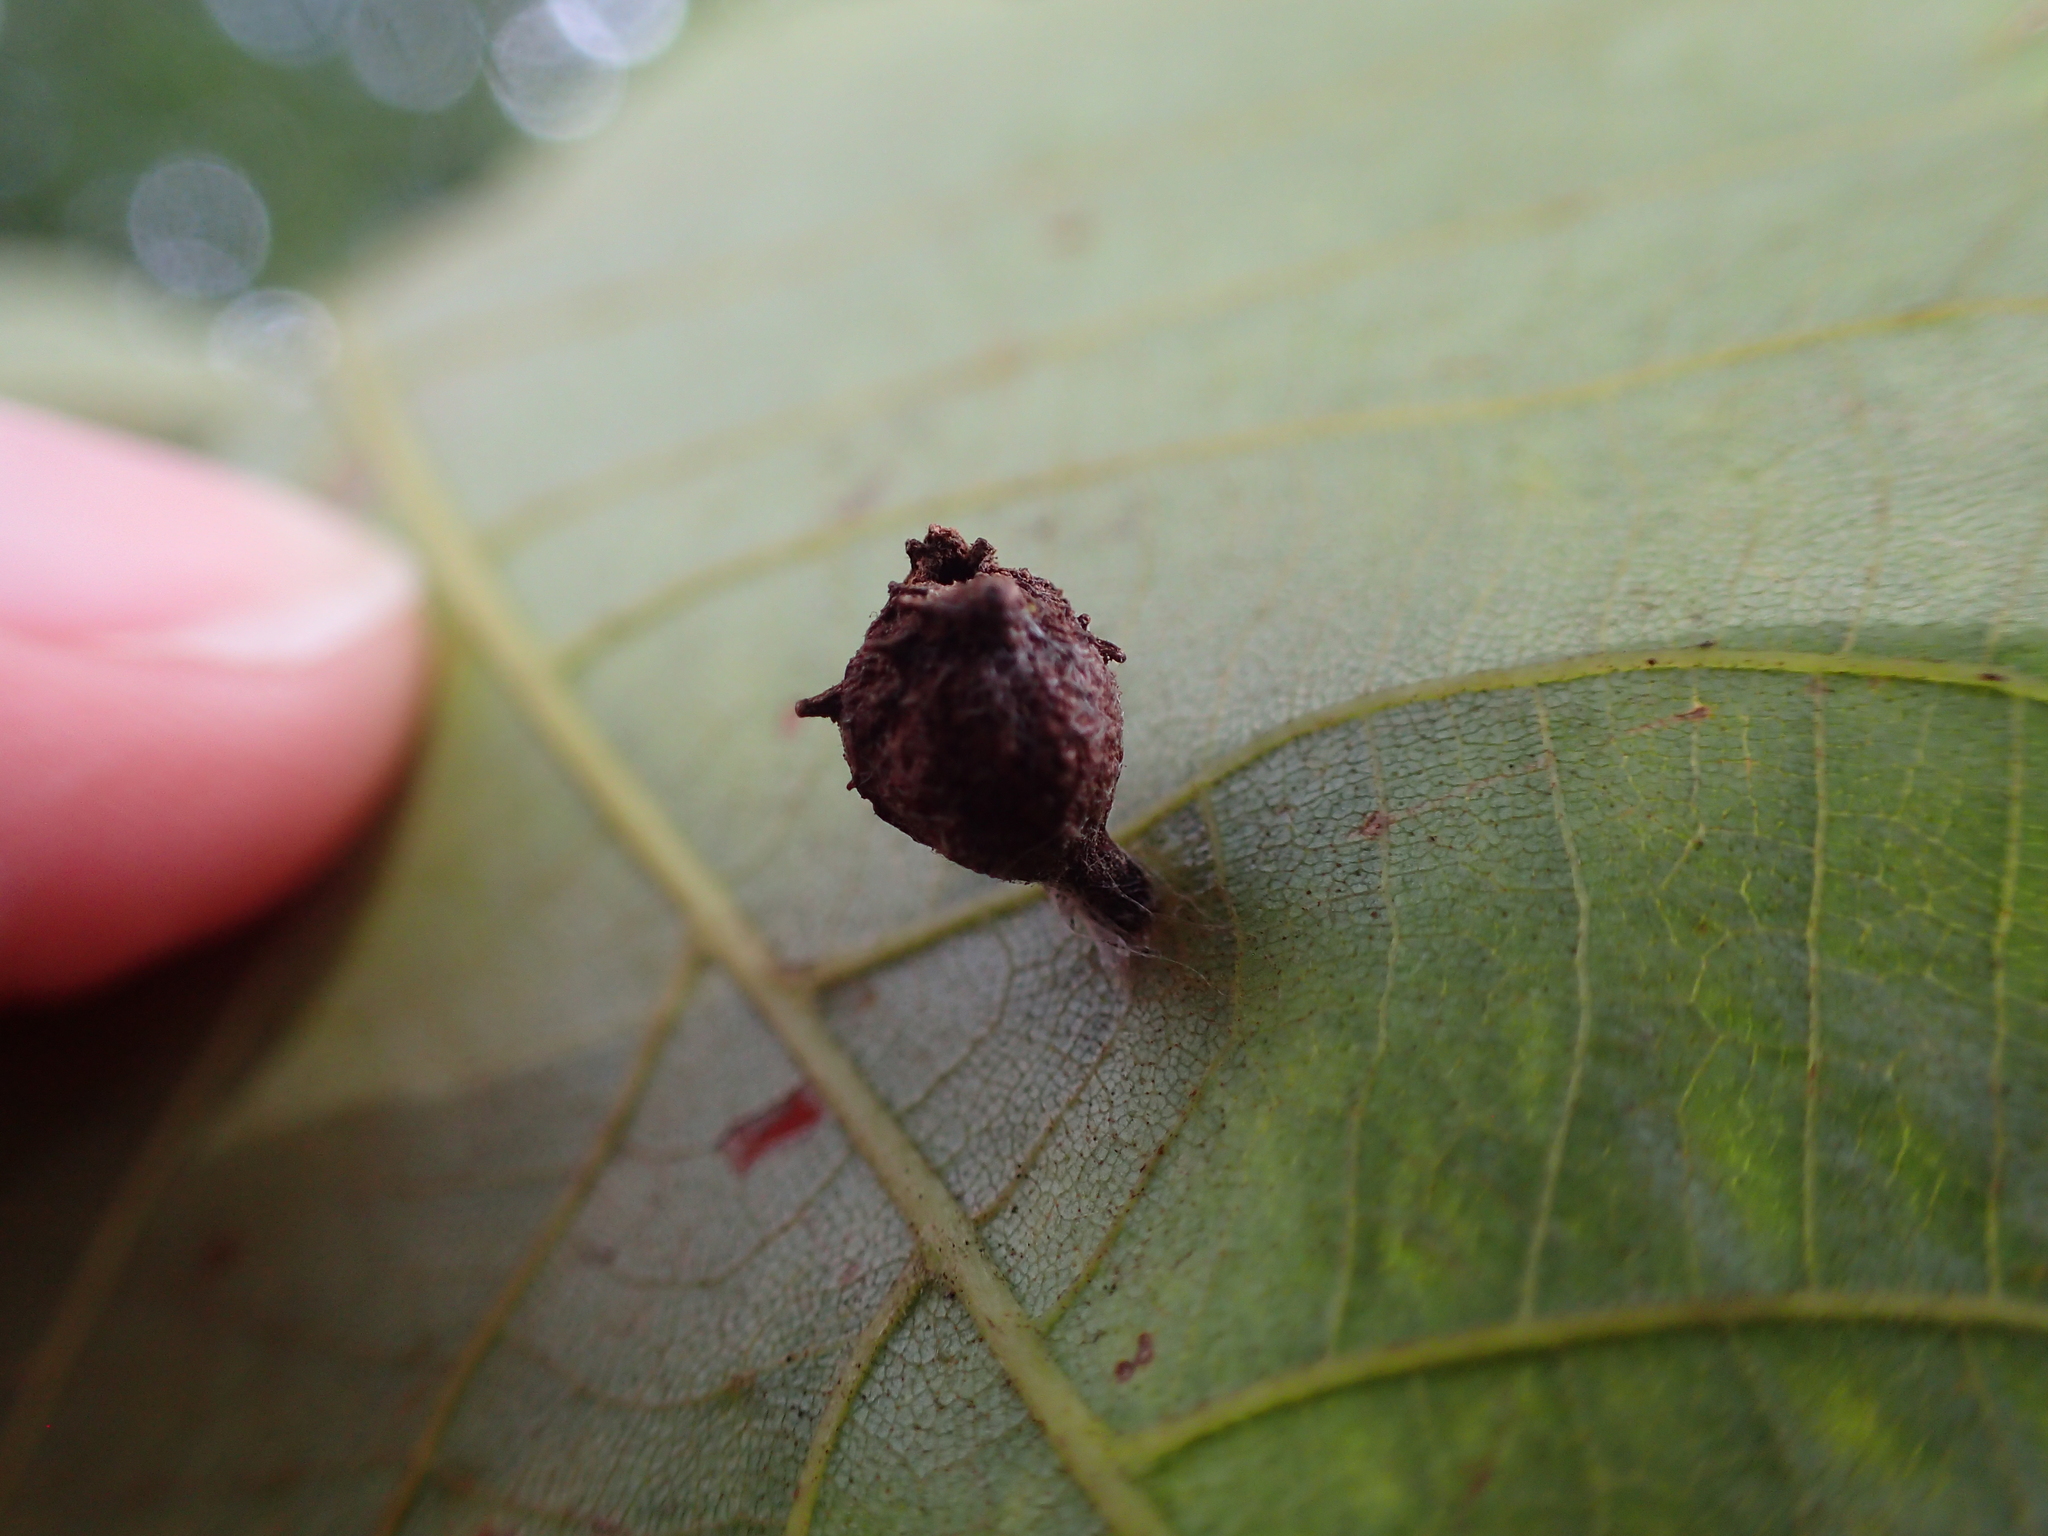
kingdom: Animalia
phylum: Arthropoda
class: Insecta
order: Hemiptera
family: Phylloxeridae
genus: Phylloxera
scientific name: Phylloxera caryaegummosa
